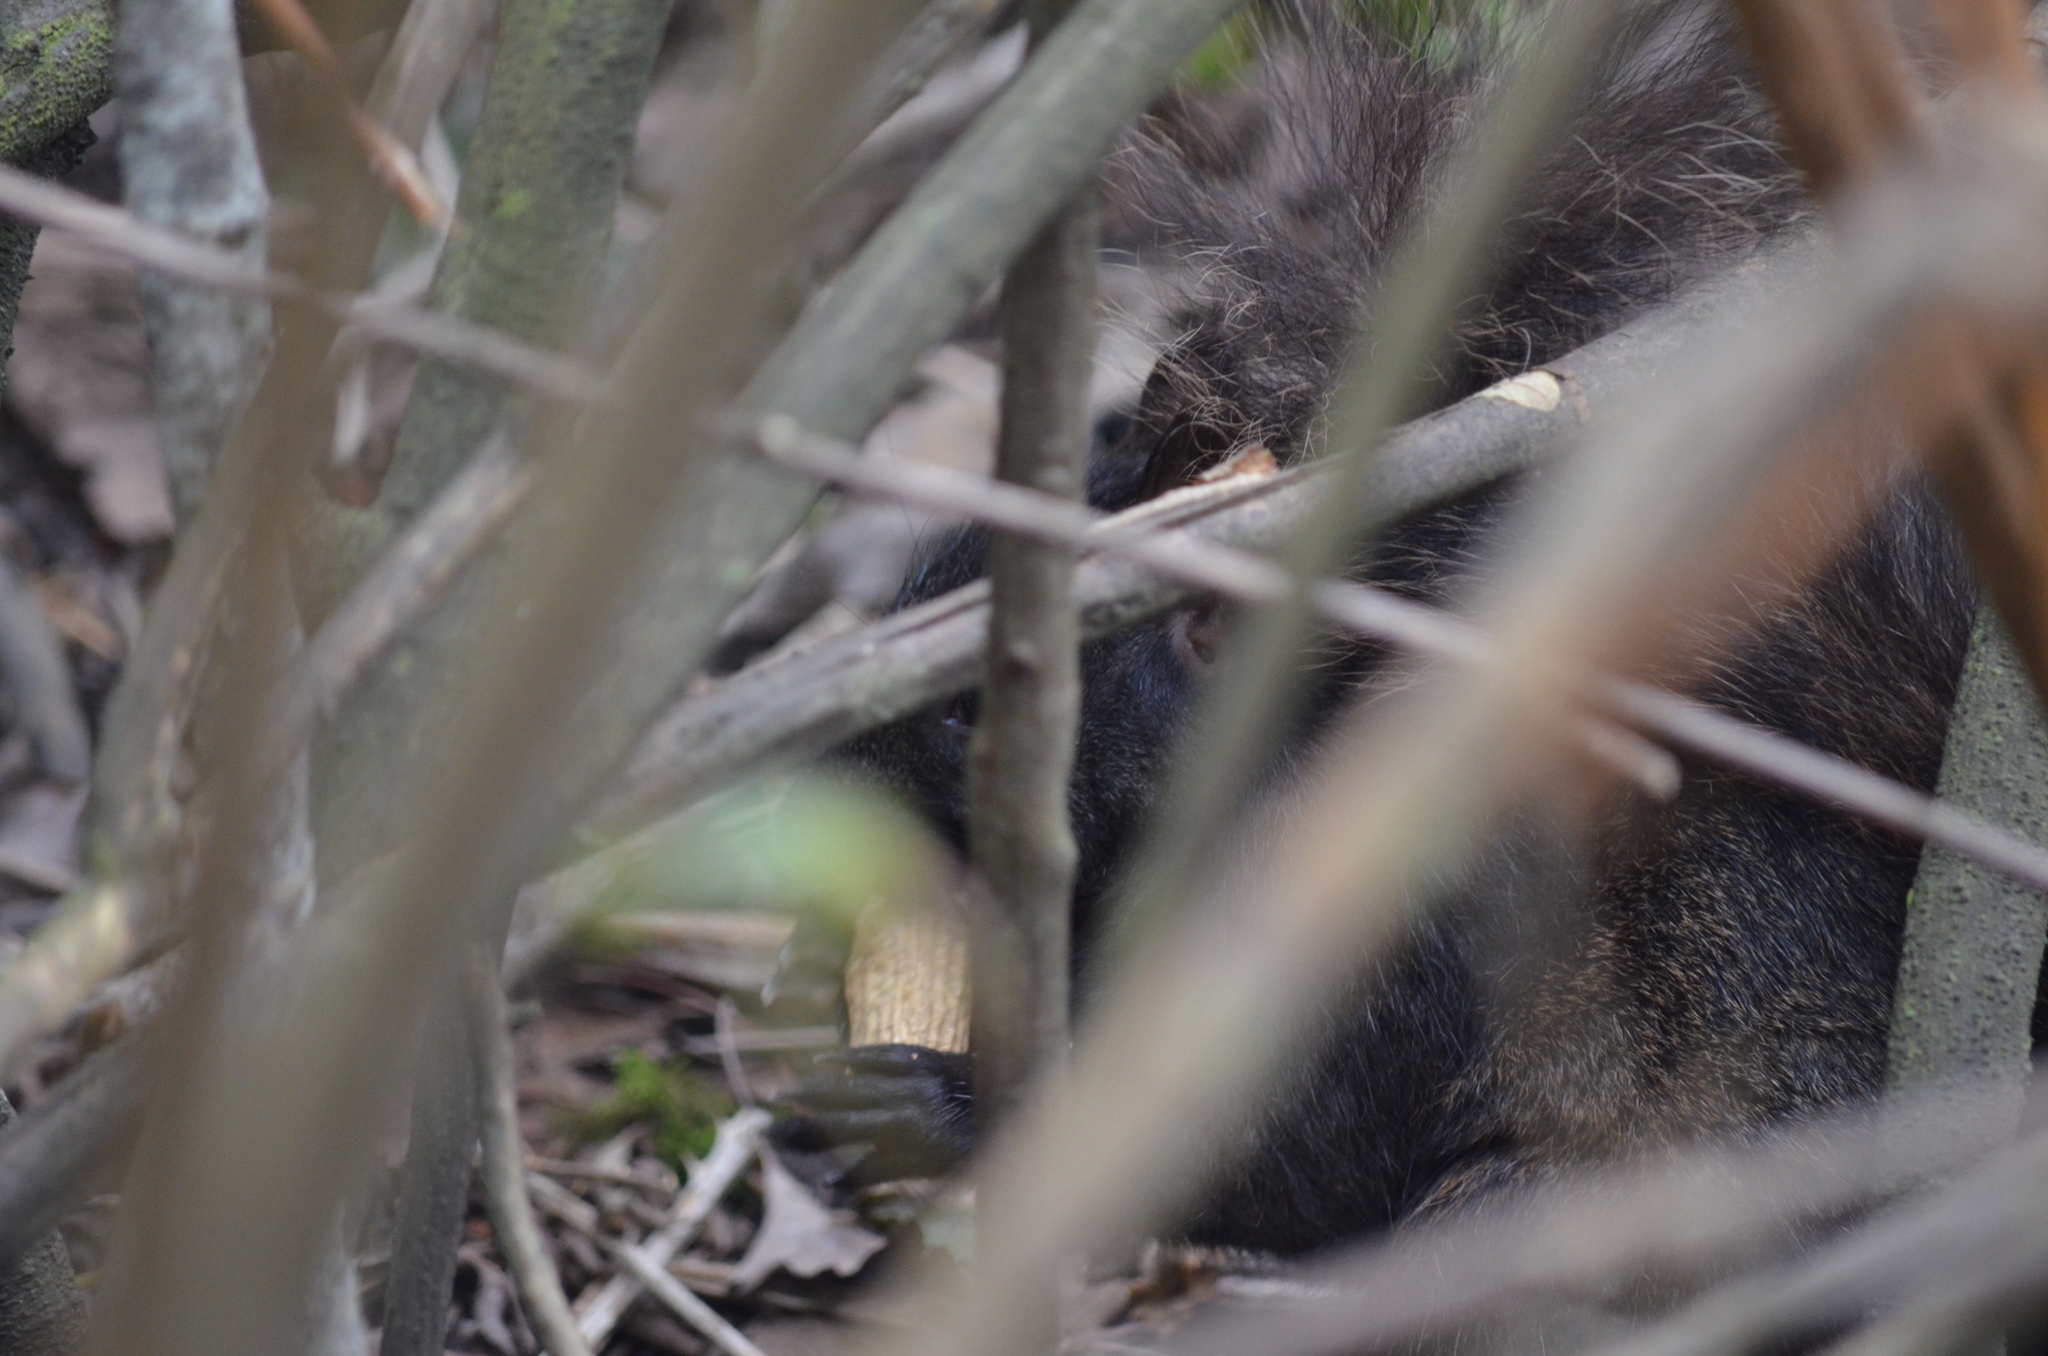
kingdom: Animalia
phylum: Chordata
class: Mammalia
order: Rodentia
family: Sciuridae
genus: Sciurus
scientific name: Sciurus carolinensis
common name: Eastern gray squirrel
